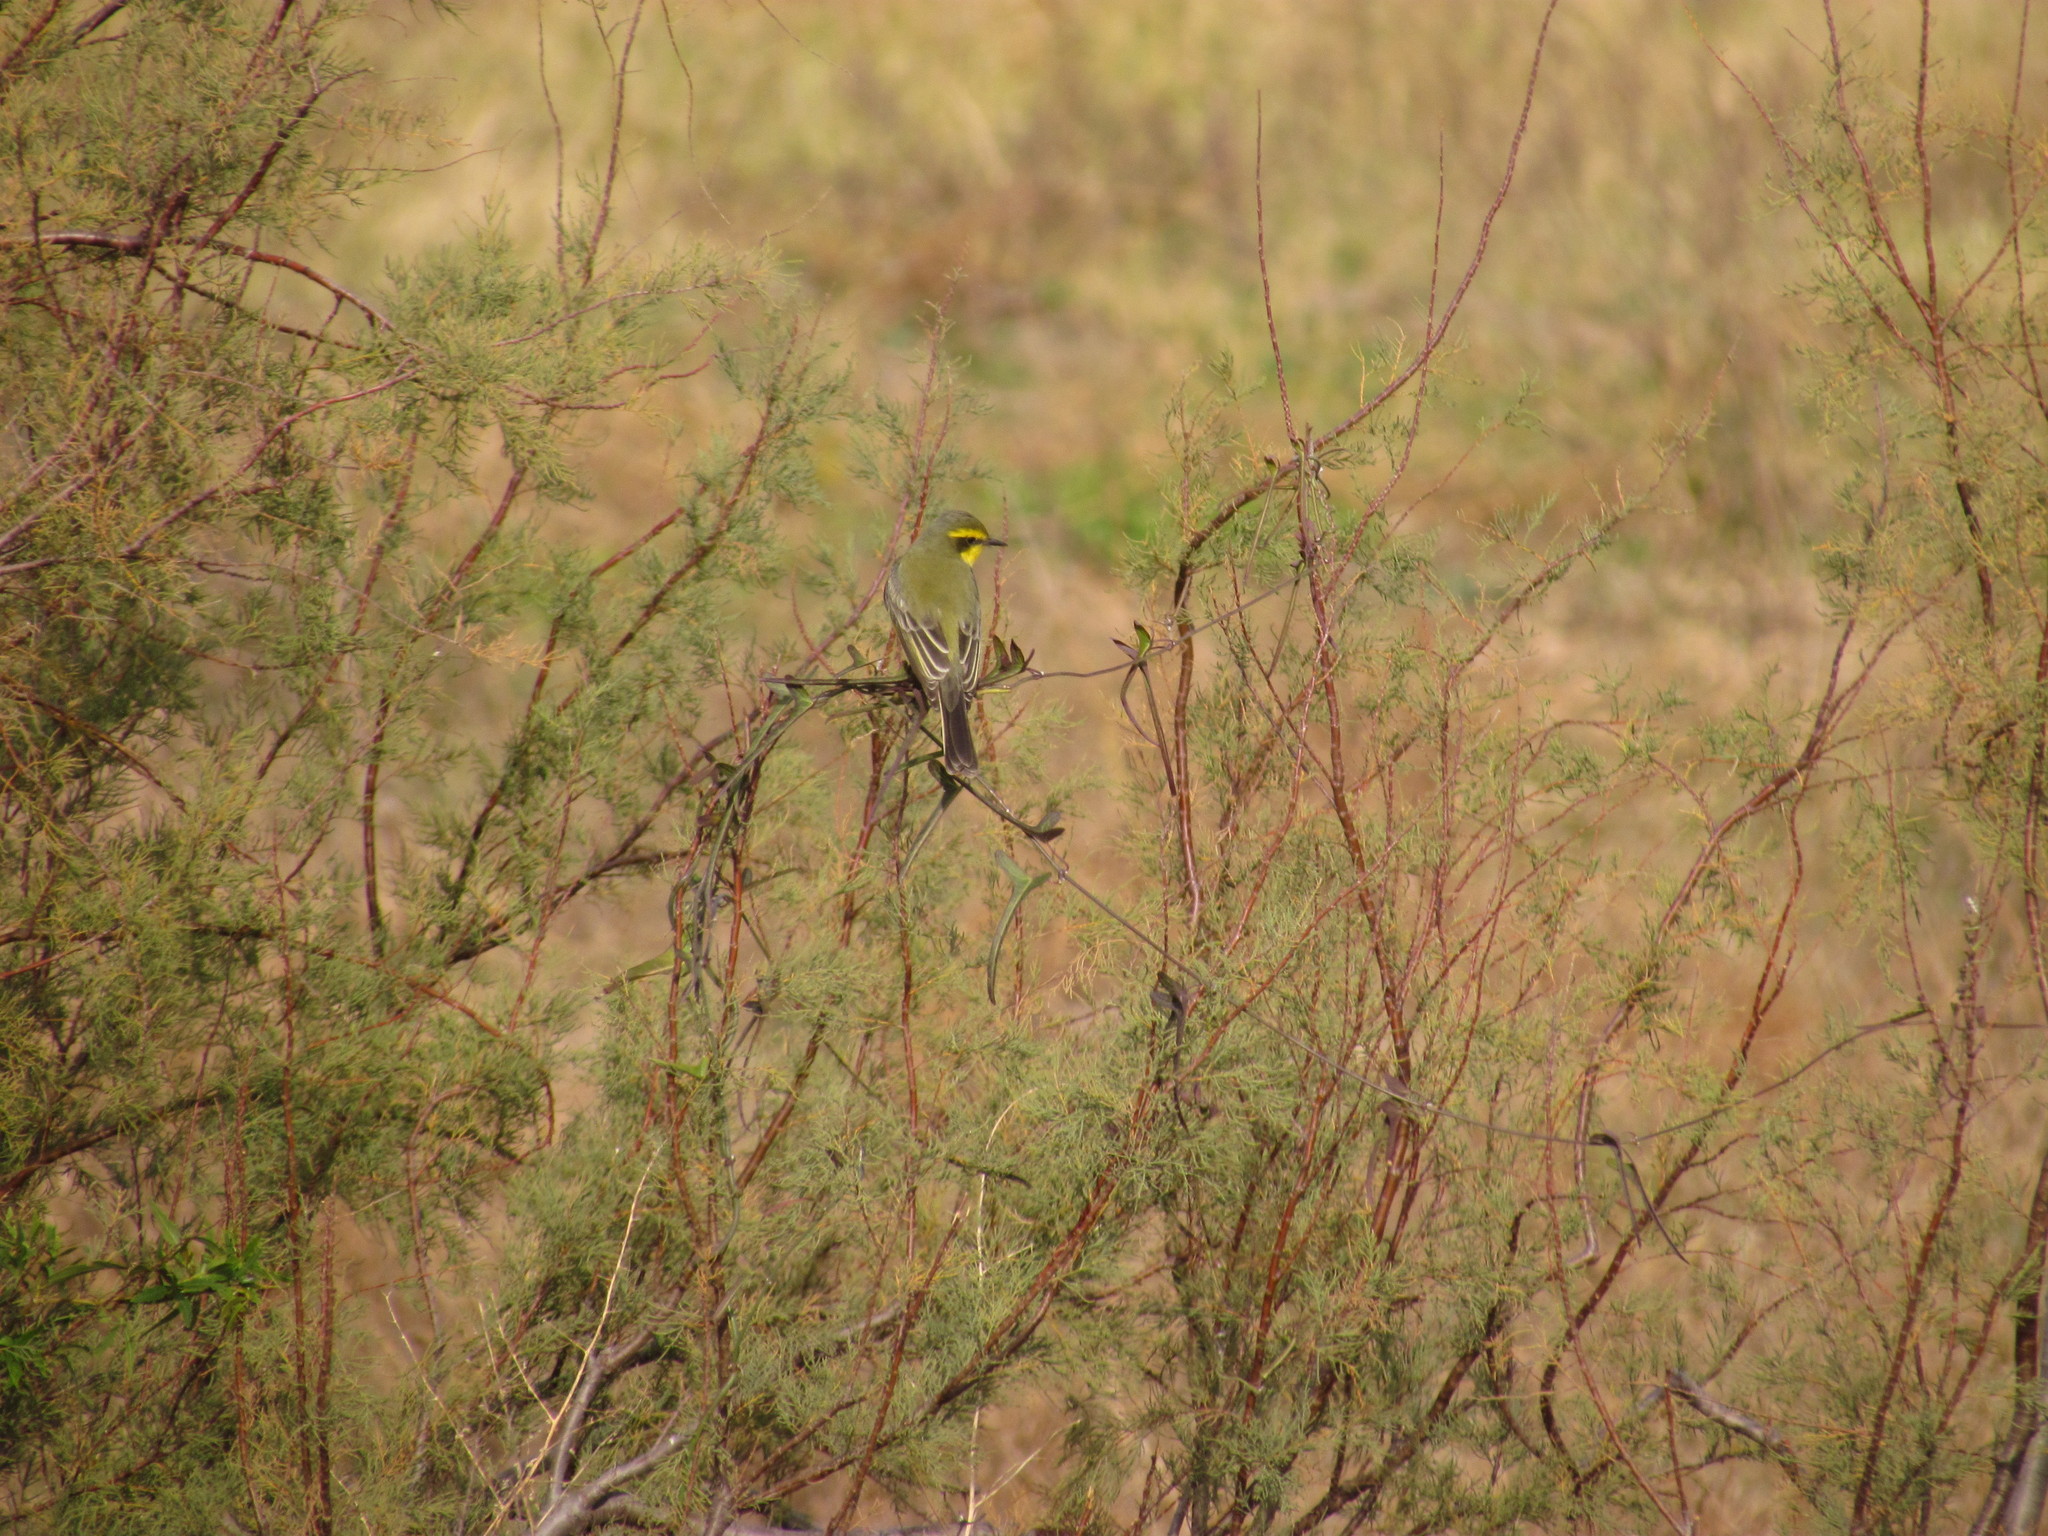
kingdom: Animalia
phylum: Chordata
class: Aves
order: Passeriformes
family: Tyrannidae
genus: Satrapa
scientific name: Satrapa icterophrys
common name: Yellow-browed tyrant
